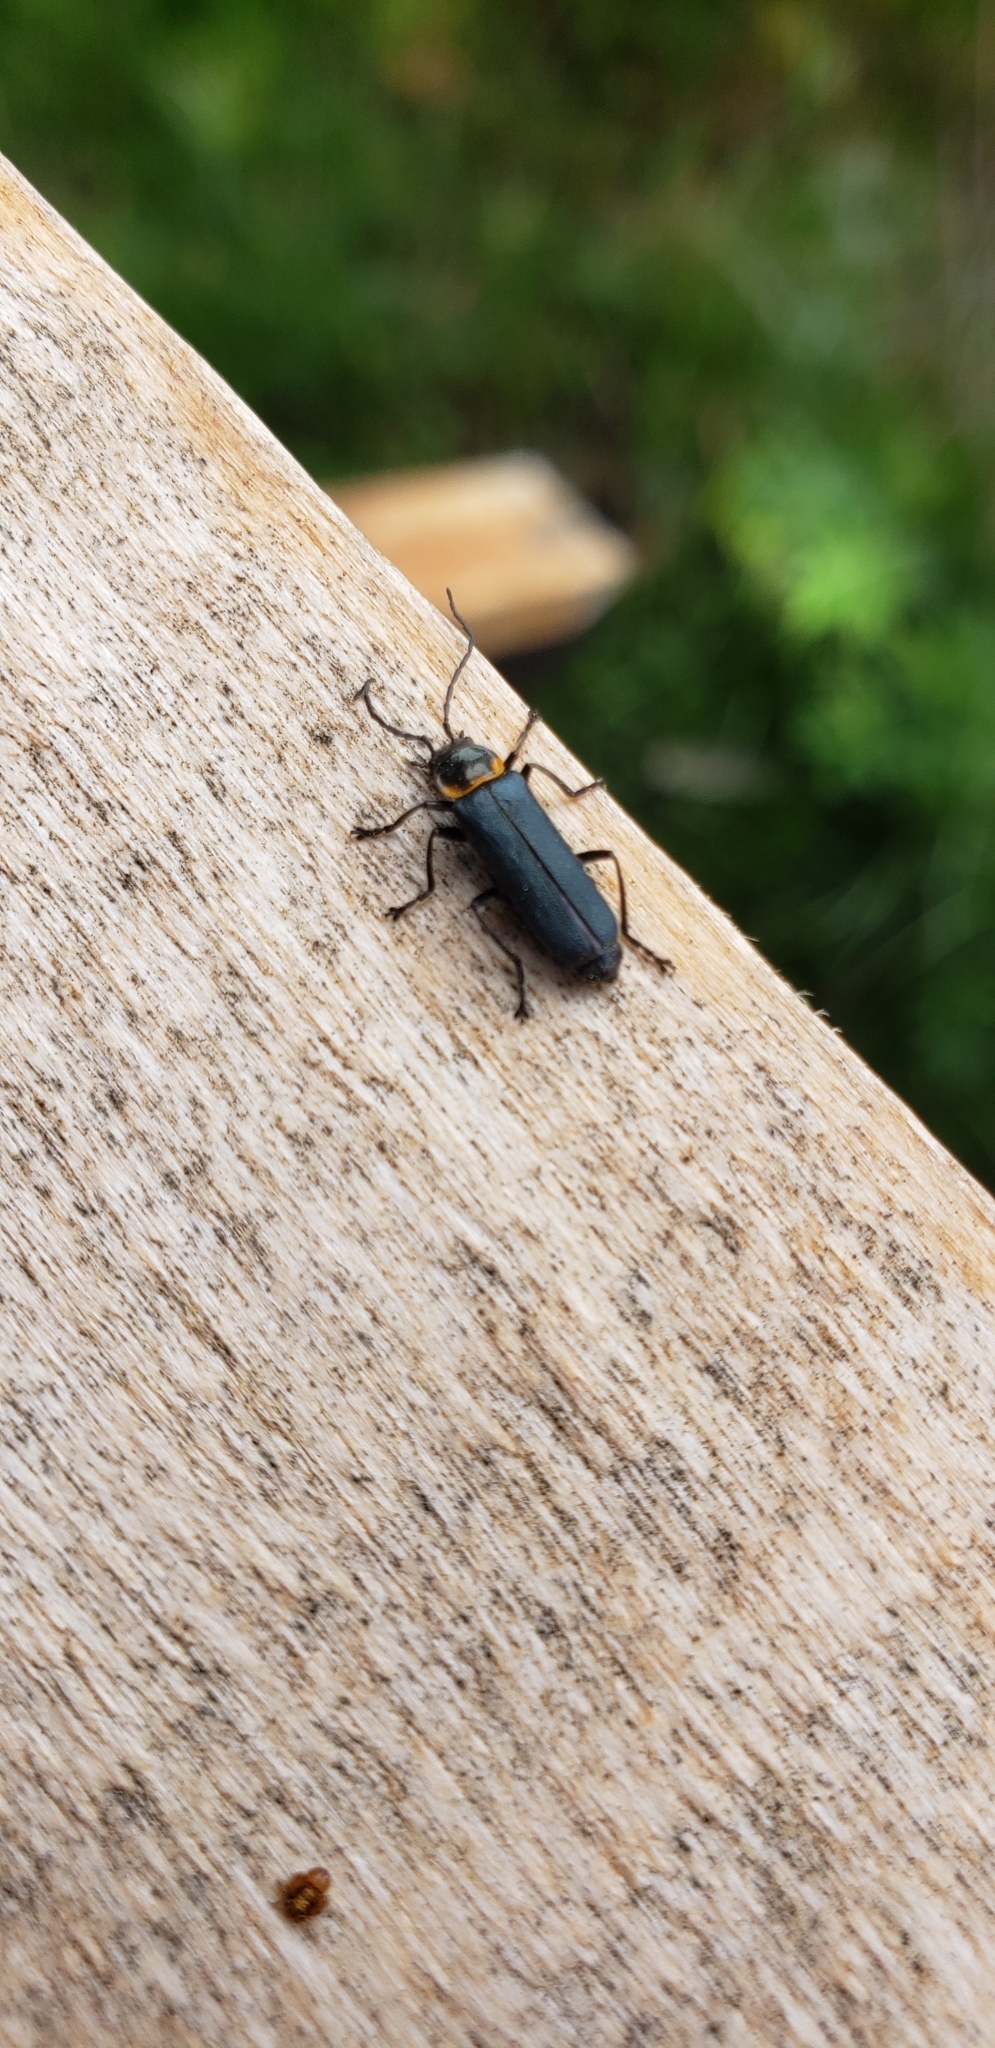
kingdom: Animalia
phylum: Arthropoda
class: Insecta
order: Coleoptera
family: Cantharidae
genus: Chauliognathus
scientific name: Chauliognathus
